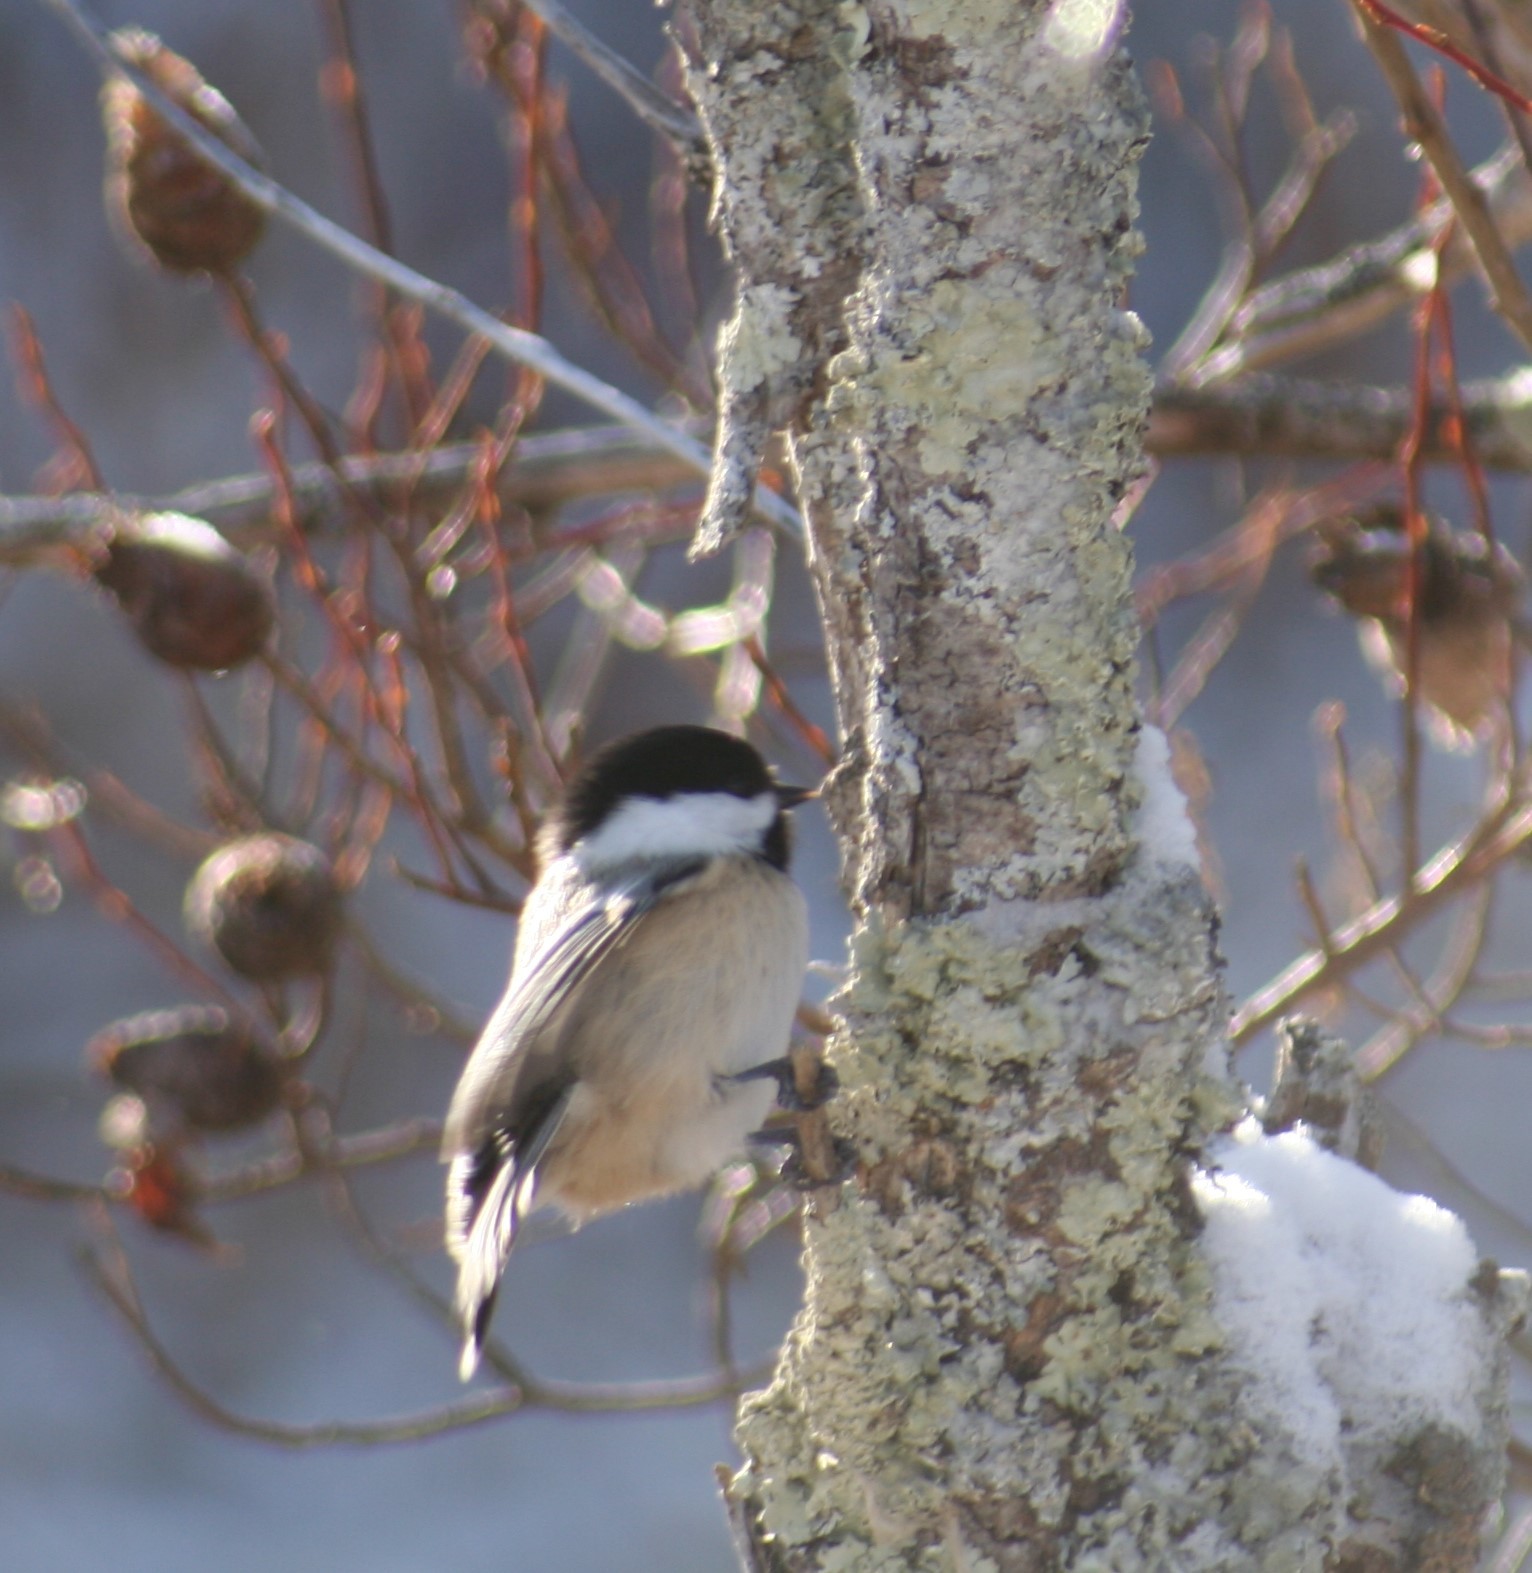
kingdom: Animalia
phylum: Chordata
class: Aves
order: Passeriformes
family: Paridae
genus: Poecile
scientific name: Poecile atricapillus
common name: Black-capped chickadee
